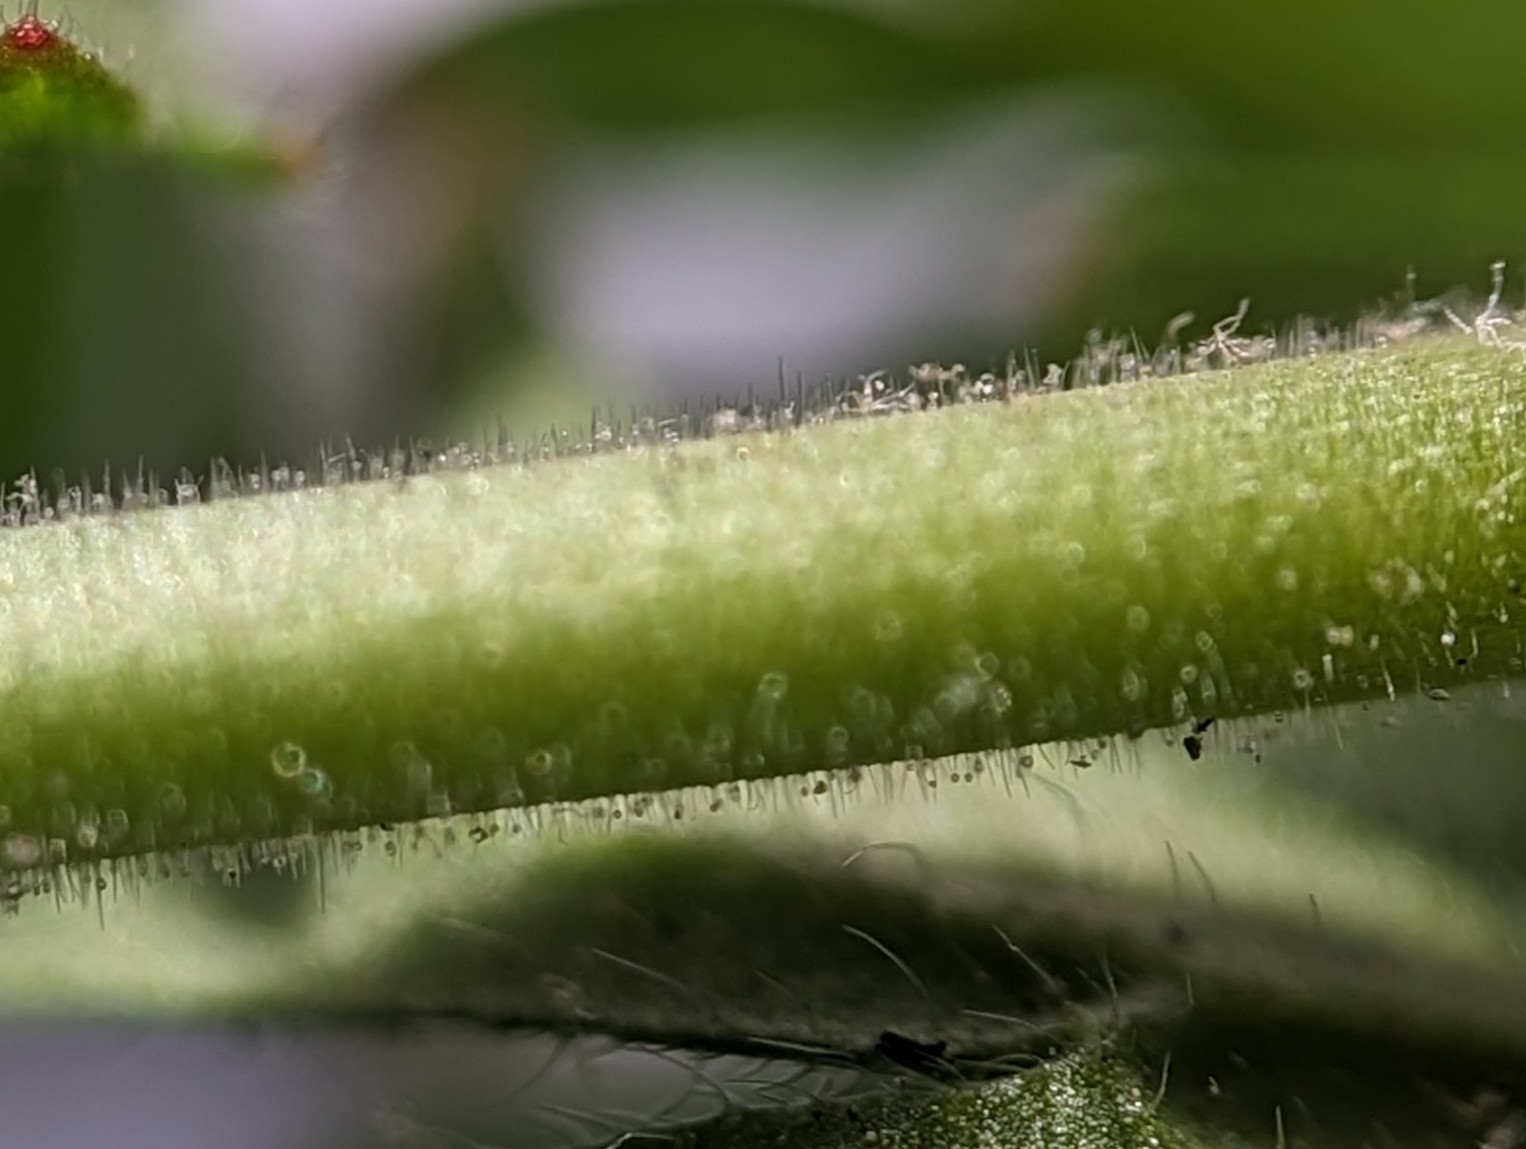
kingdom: Plantae
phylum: Tracheophyta
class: Magnoliopsida
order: Geraniales
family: Geraniaceae
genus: Geranium
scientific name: Geranium pusillum
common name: Small geranium
